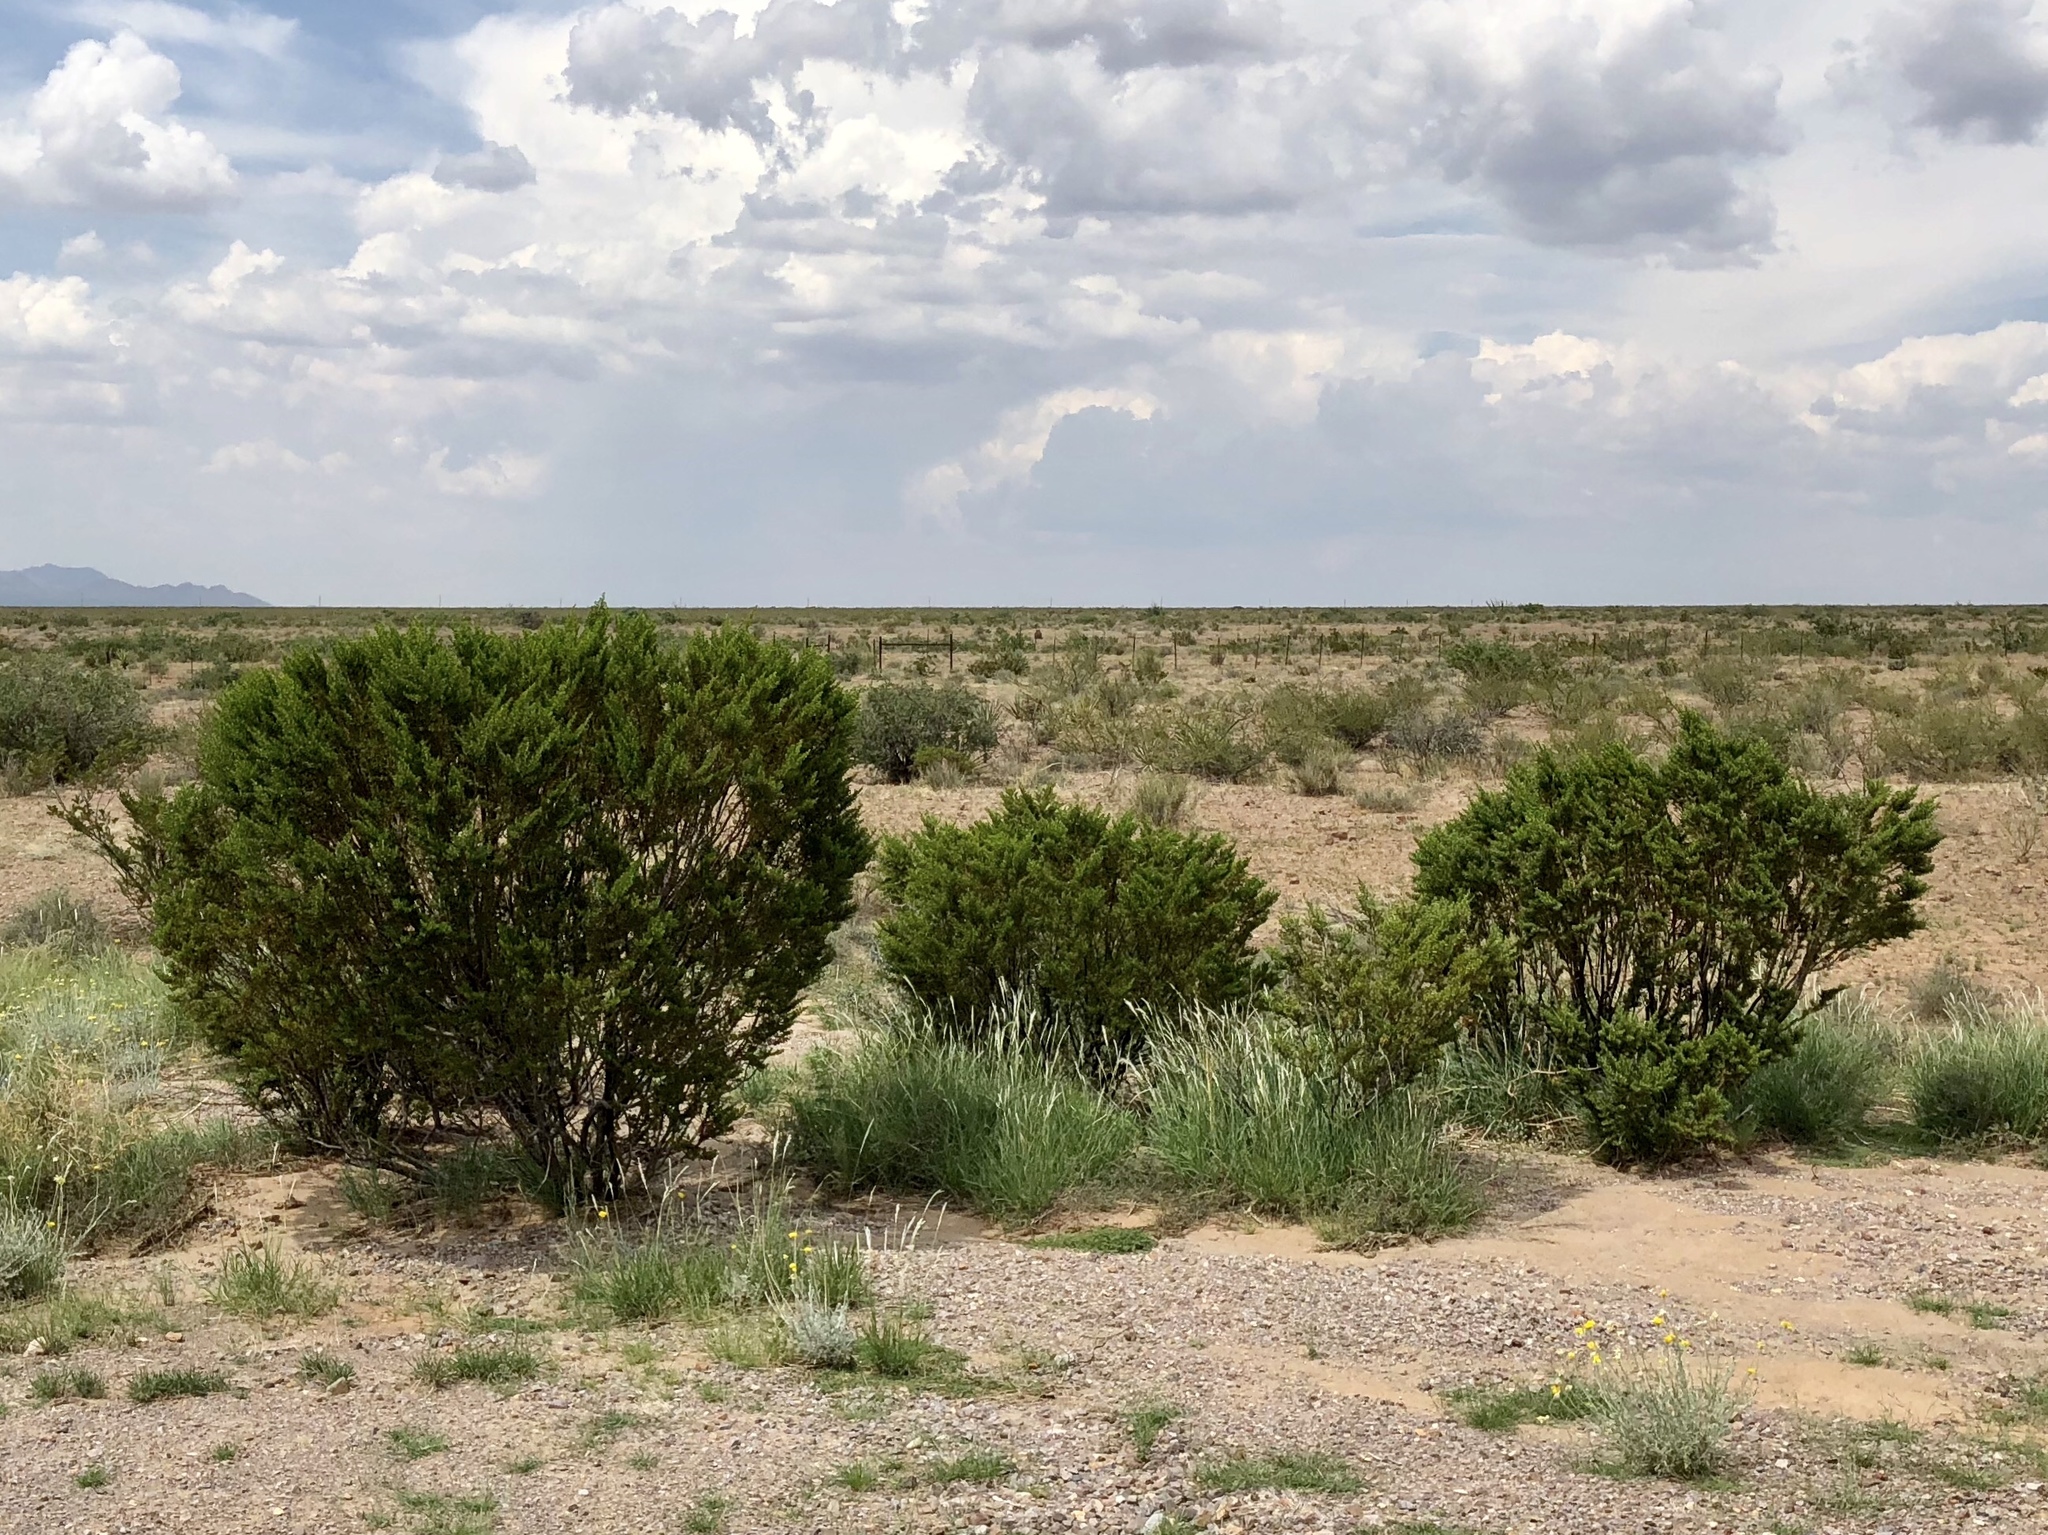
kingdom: Plantae
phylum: Tracheophyta
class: Magnoliopsida
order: Zygophyllales
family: Zygophyllaceae
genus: Larrea
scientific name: Larrea tridentata
